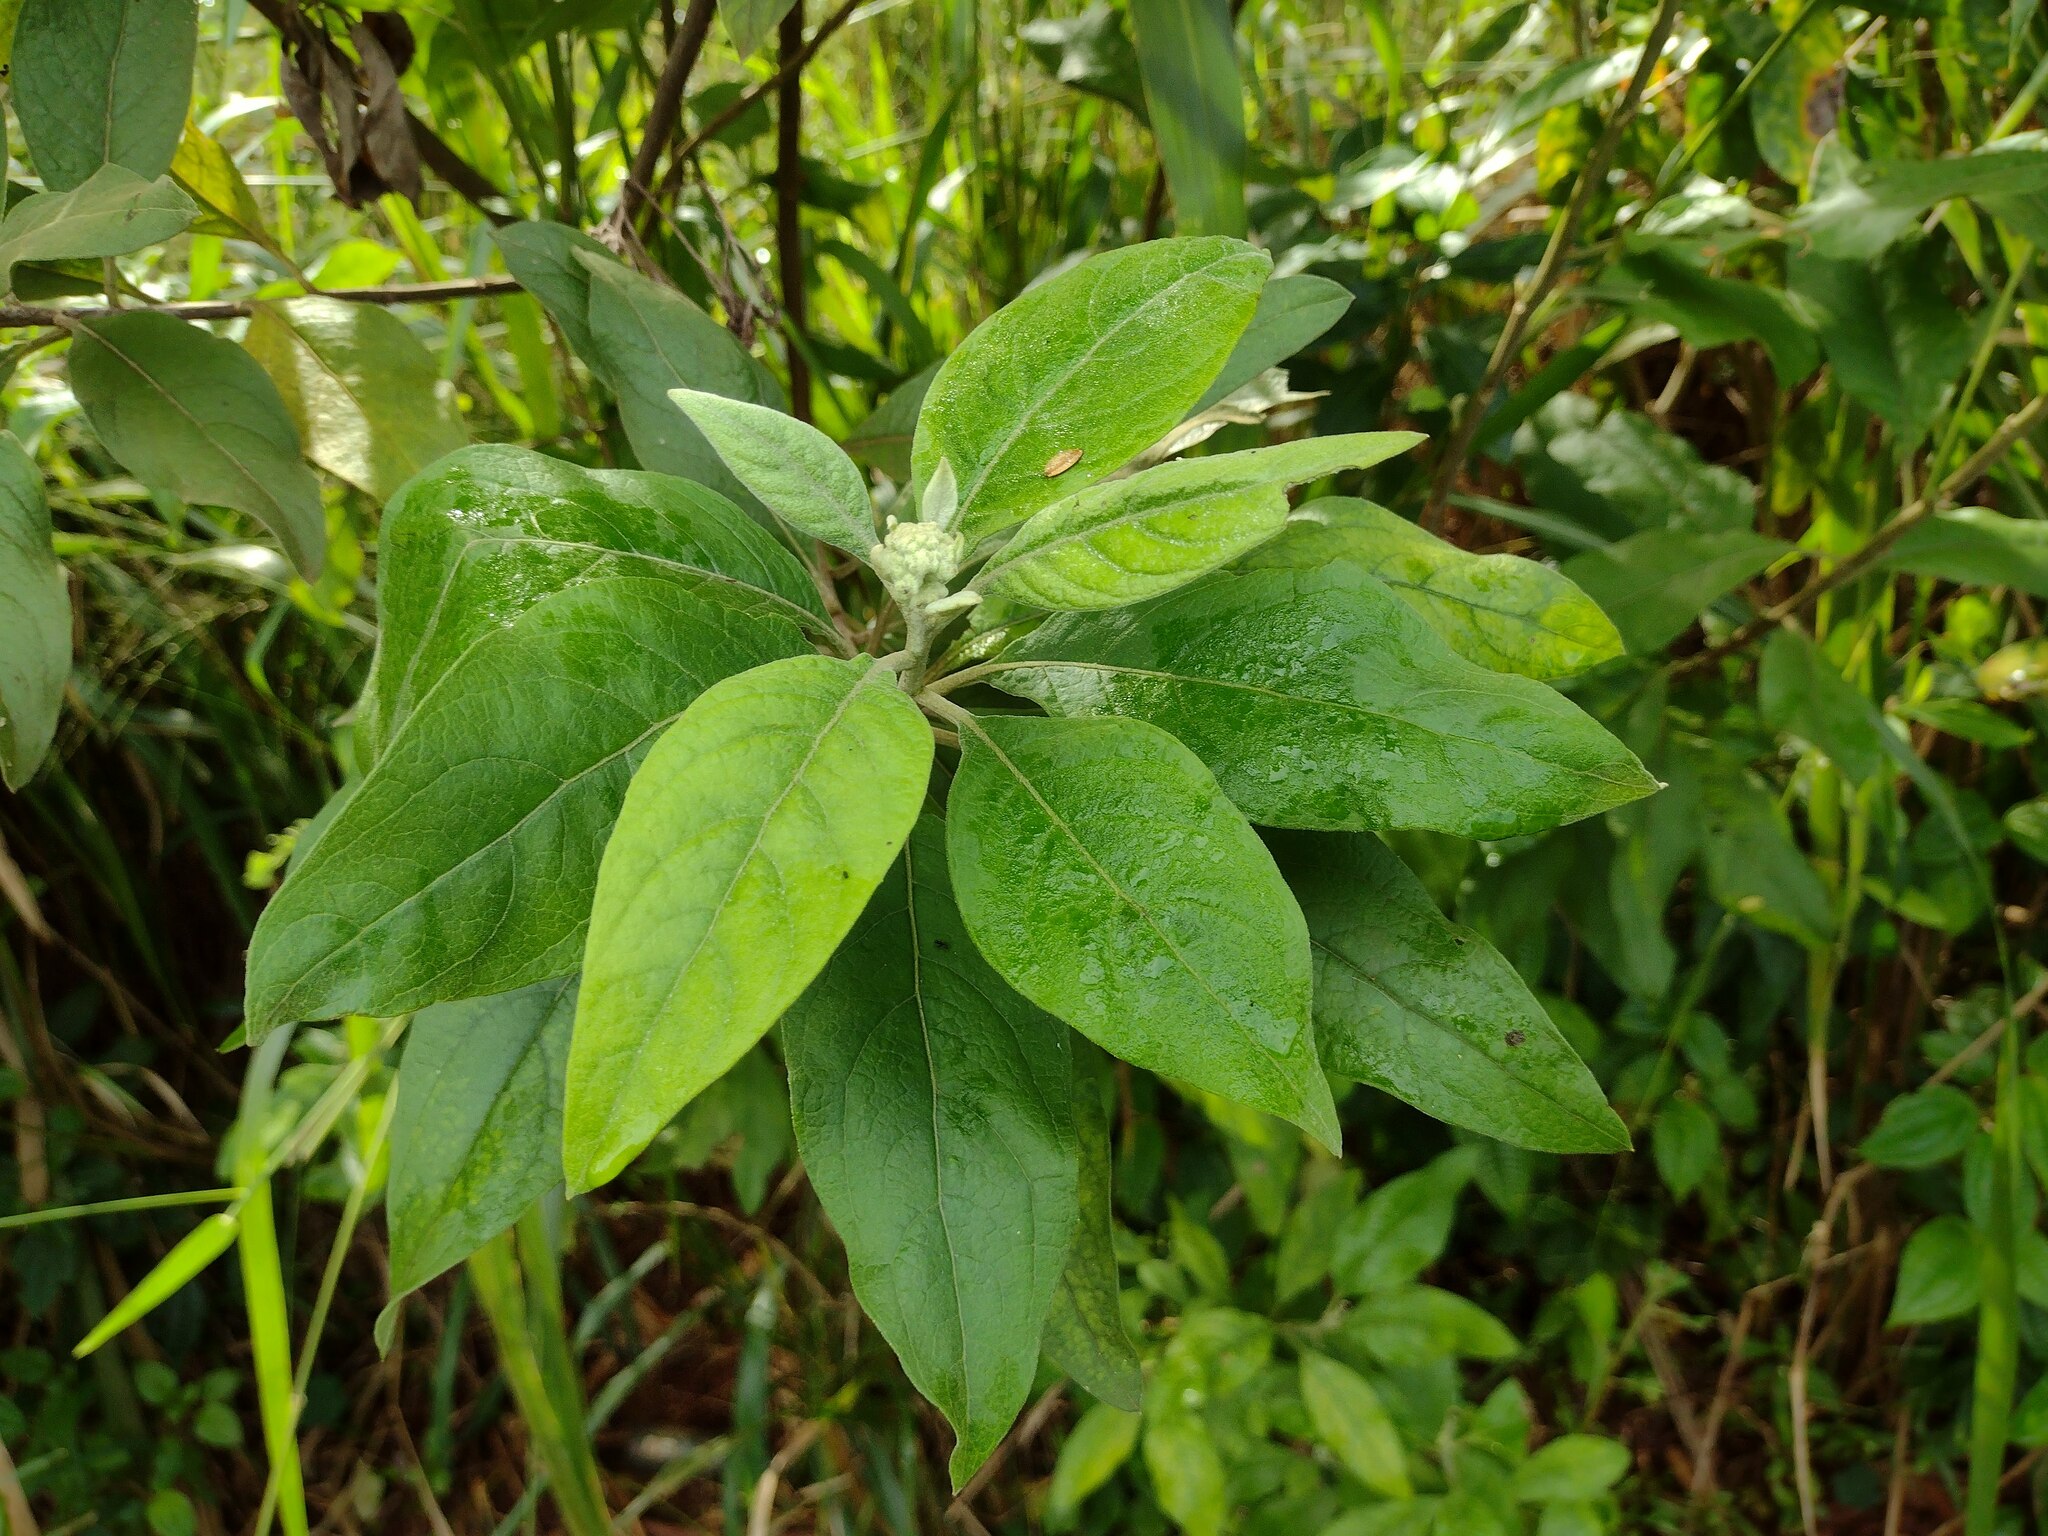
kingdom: Plantae
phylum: Tracheophyta
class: Magnoliopsida
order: Asterales
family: Asteraceae
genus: Pluchea
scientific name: Pluchea carolinensis
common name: Marsh fleabane
